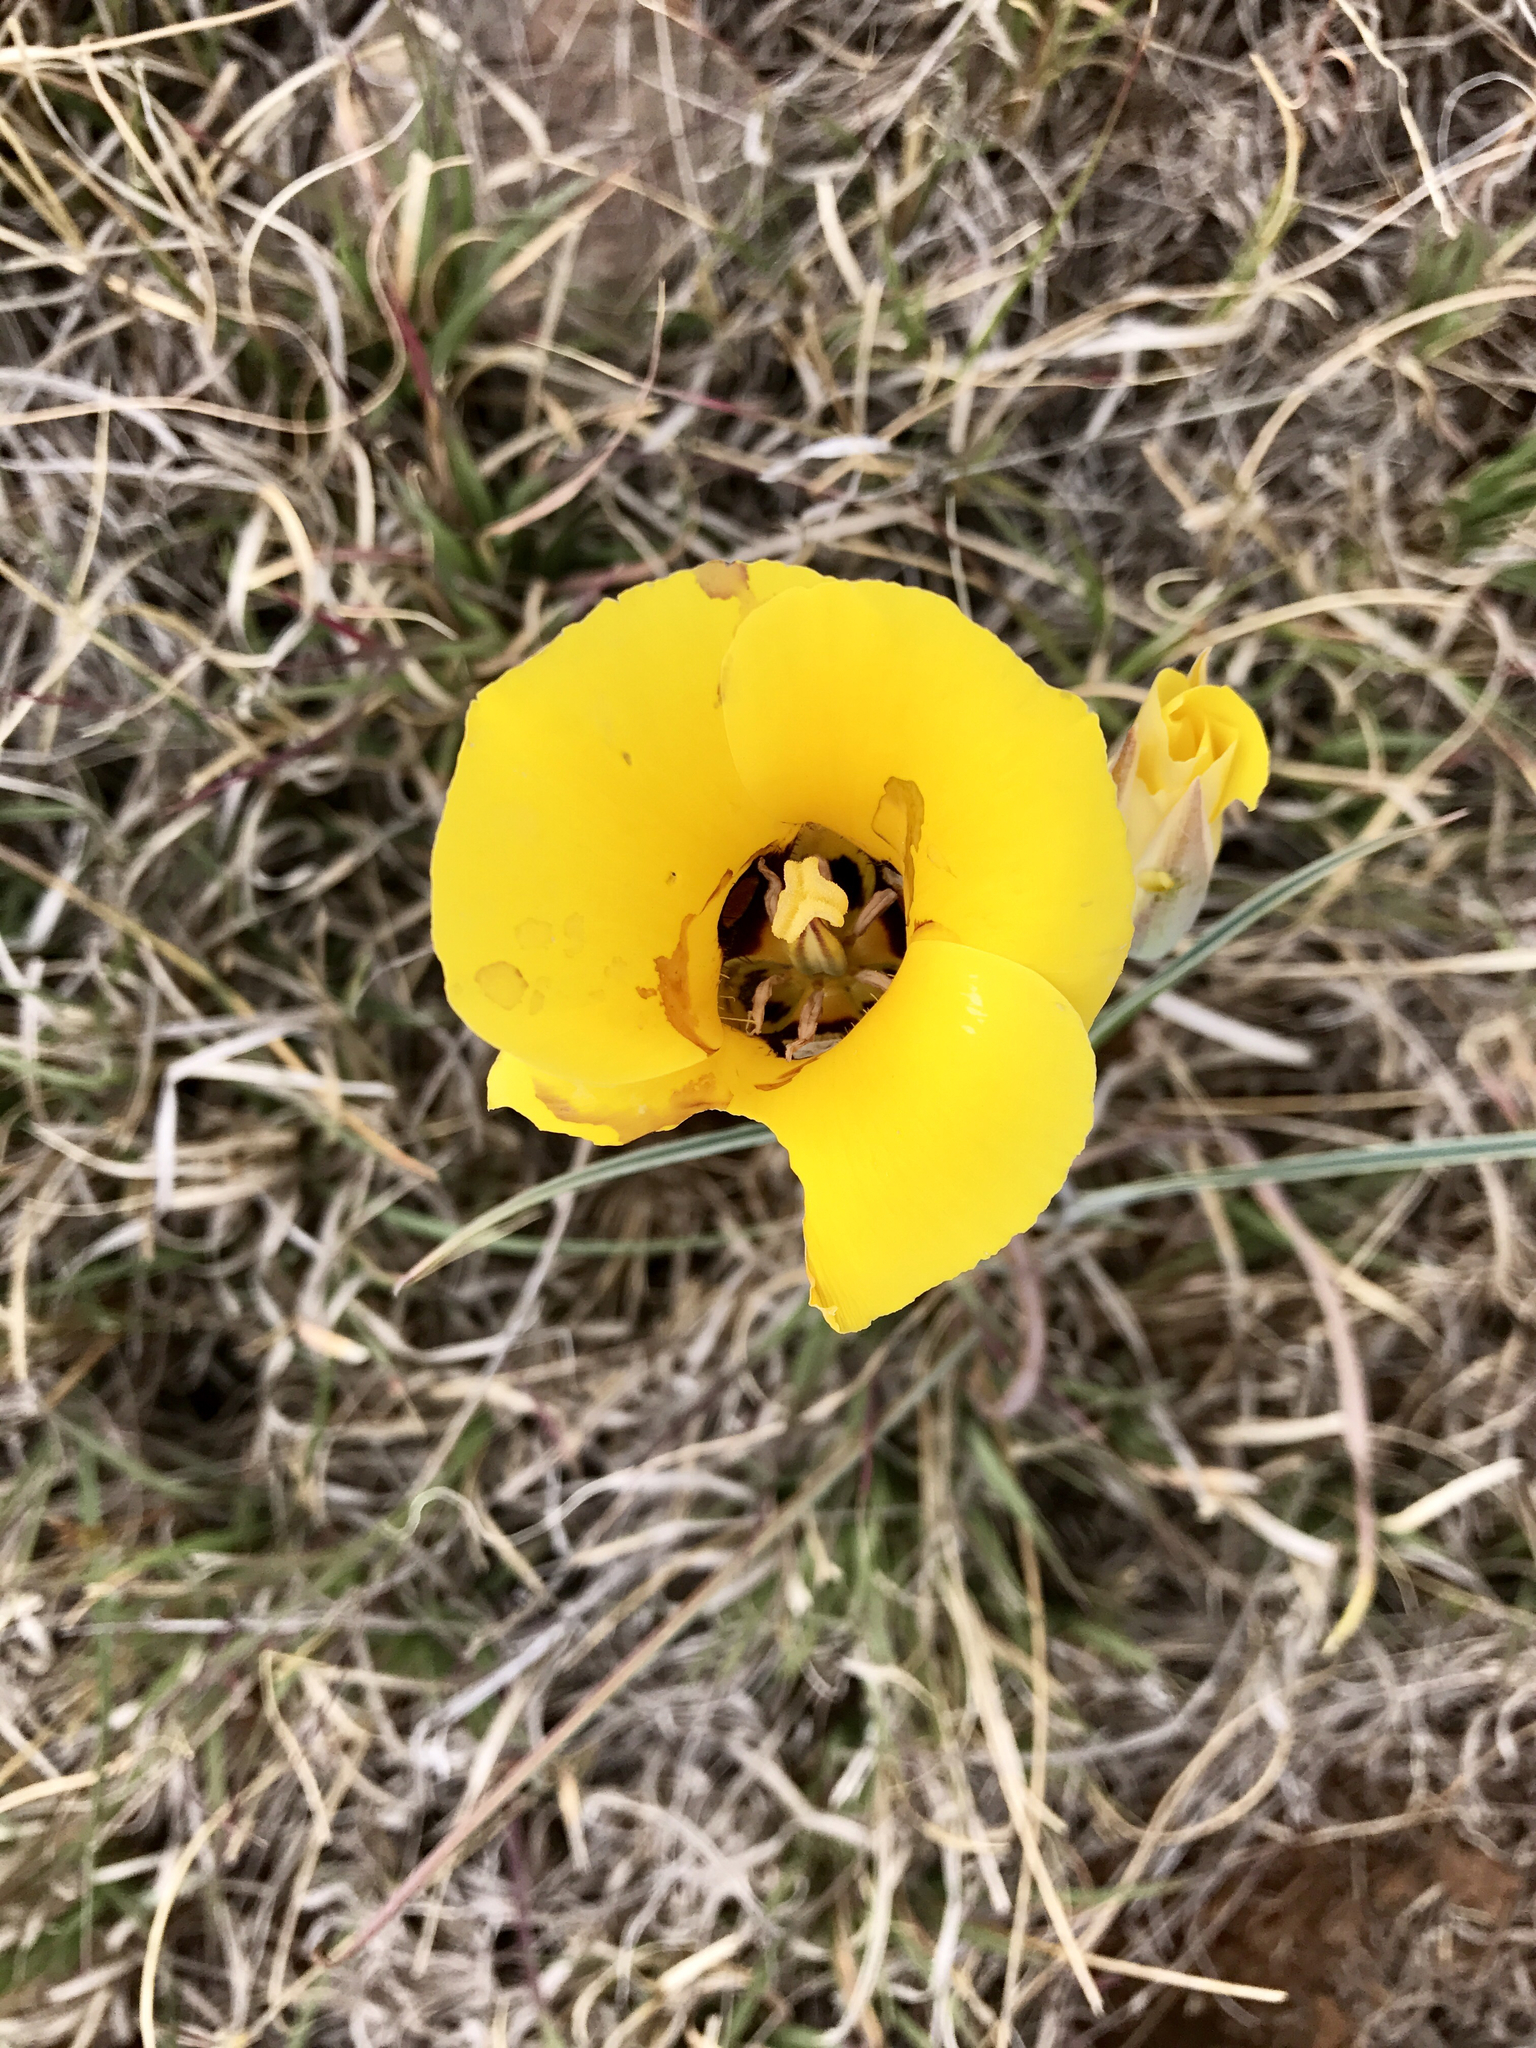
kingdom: Plantae
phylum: Tracheophyta
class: Liliopsida
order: Liliales
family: Liliaceae
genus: Calochortus
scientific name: Calochortus kennedyi
